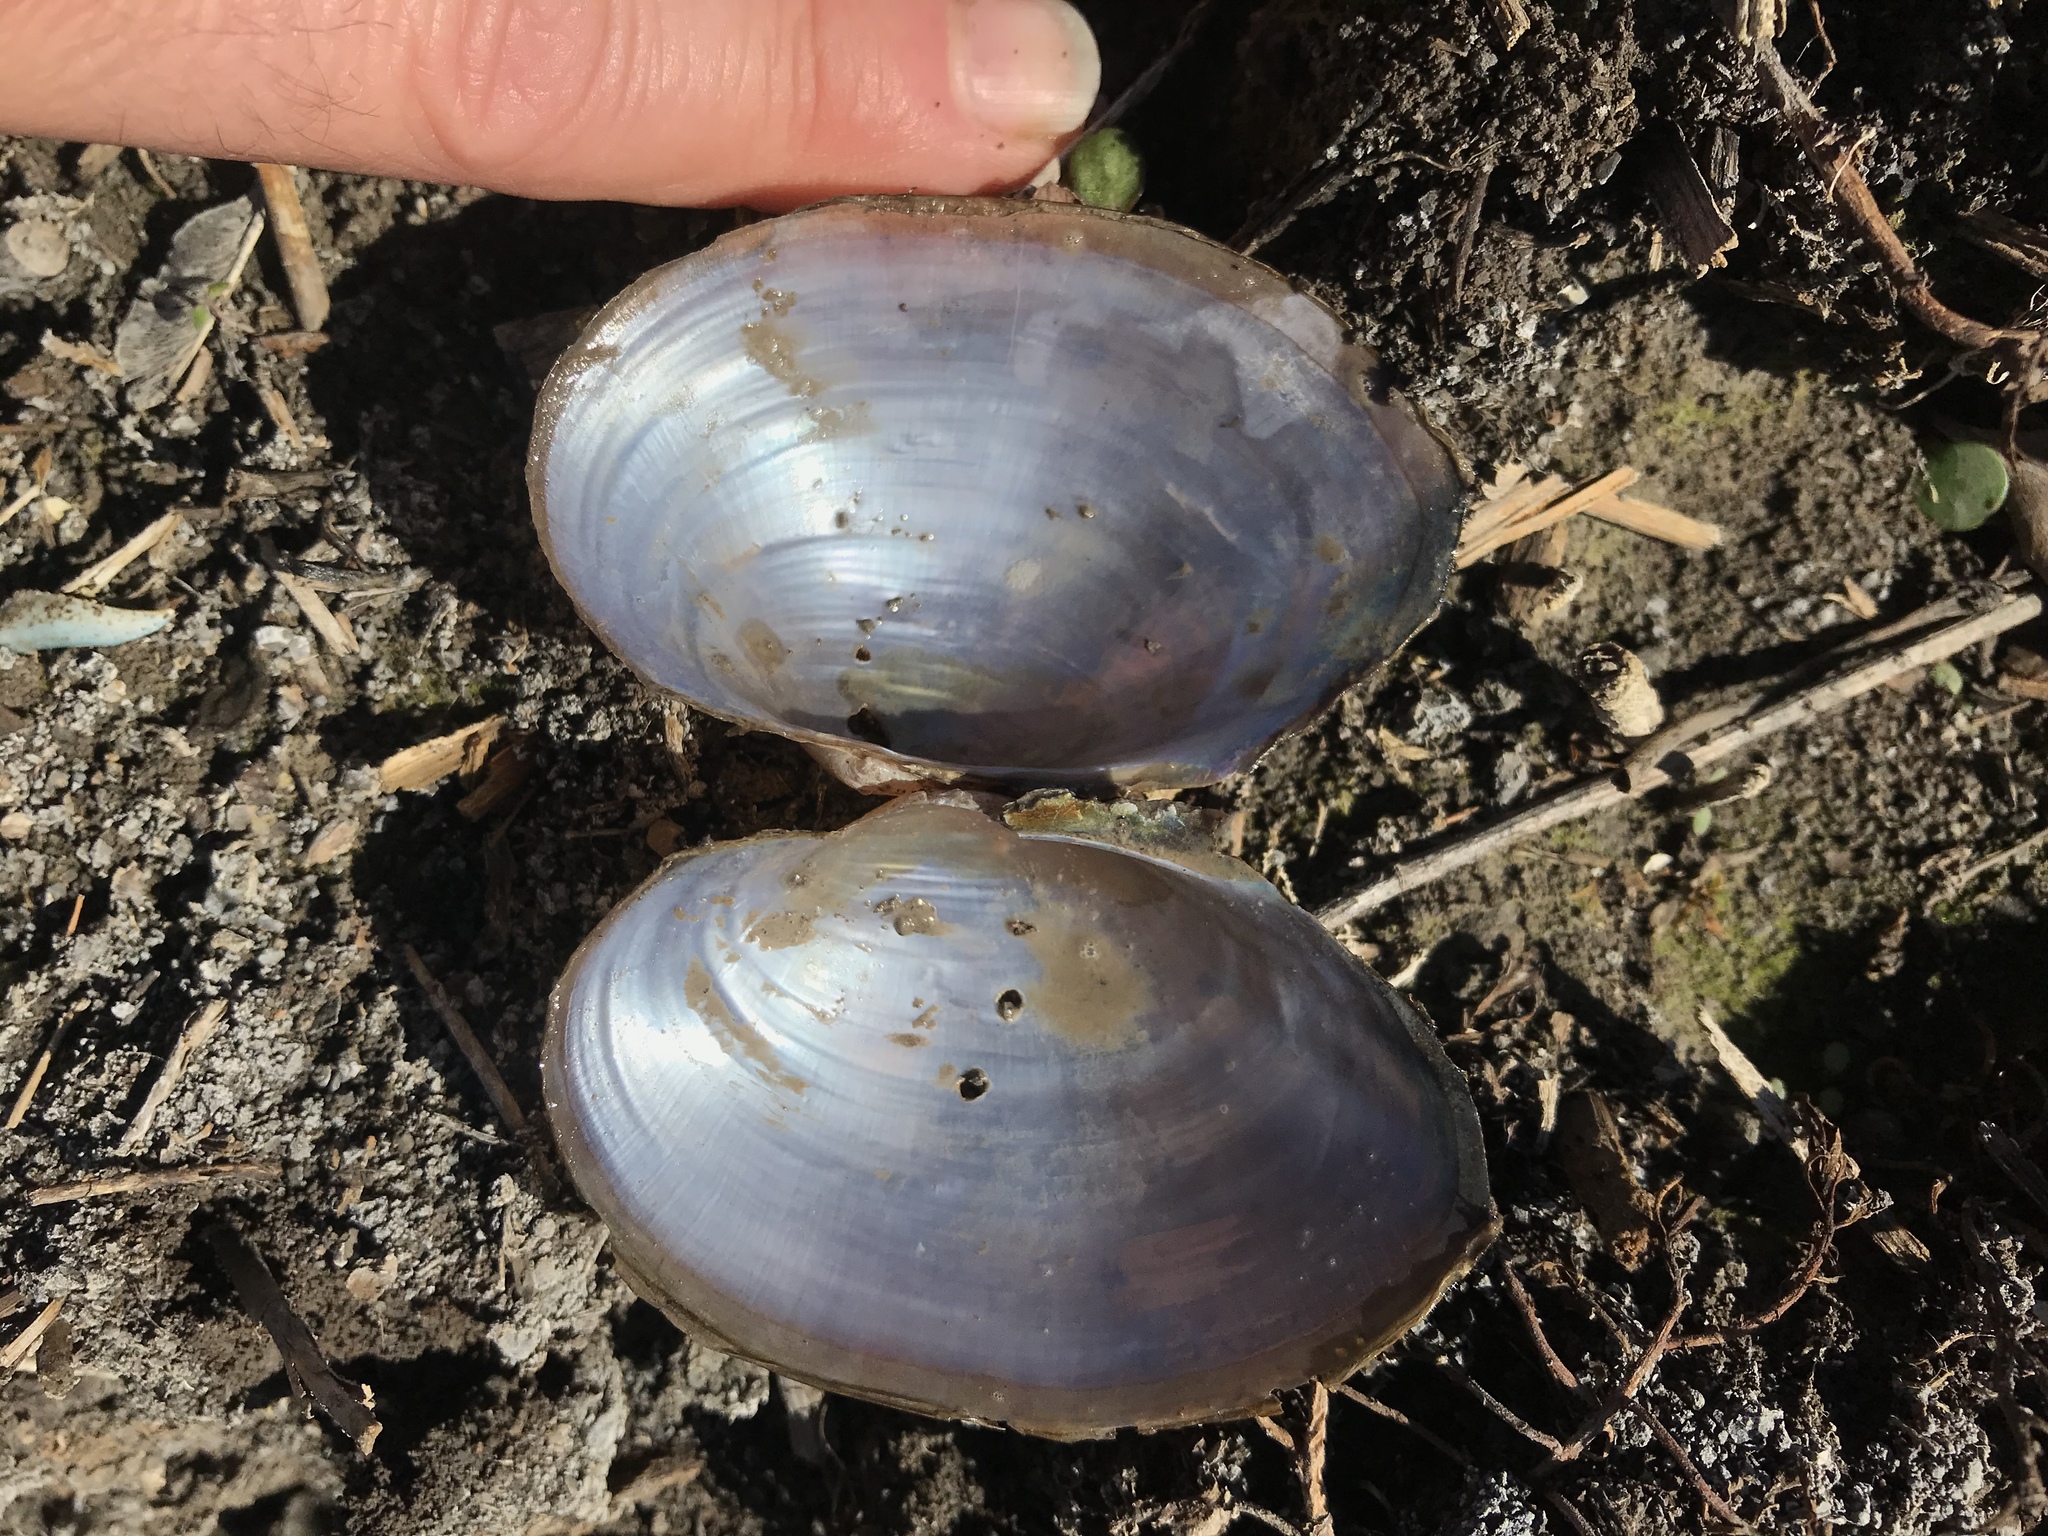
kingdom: Animalia
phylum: Mollusca
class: Bivalvia
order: Unionida
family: Unionidae
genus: Pyganodon
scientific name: Pyganodon grandis
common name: Giant floater
